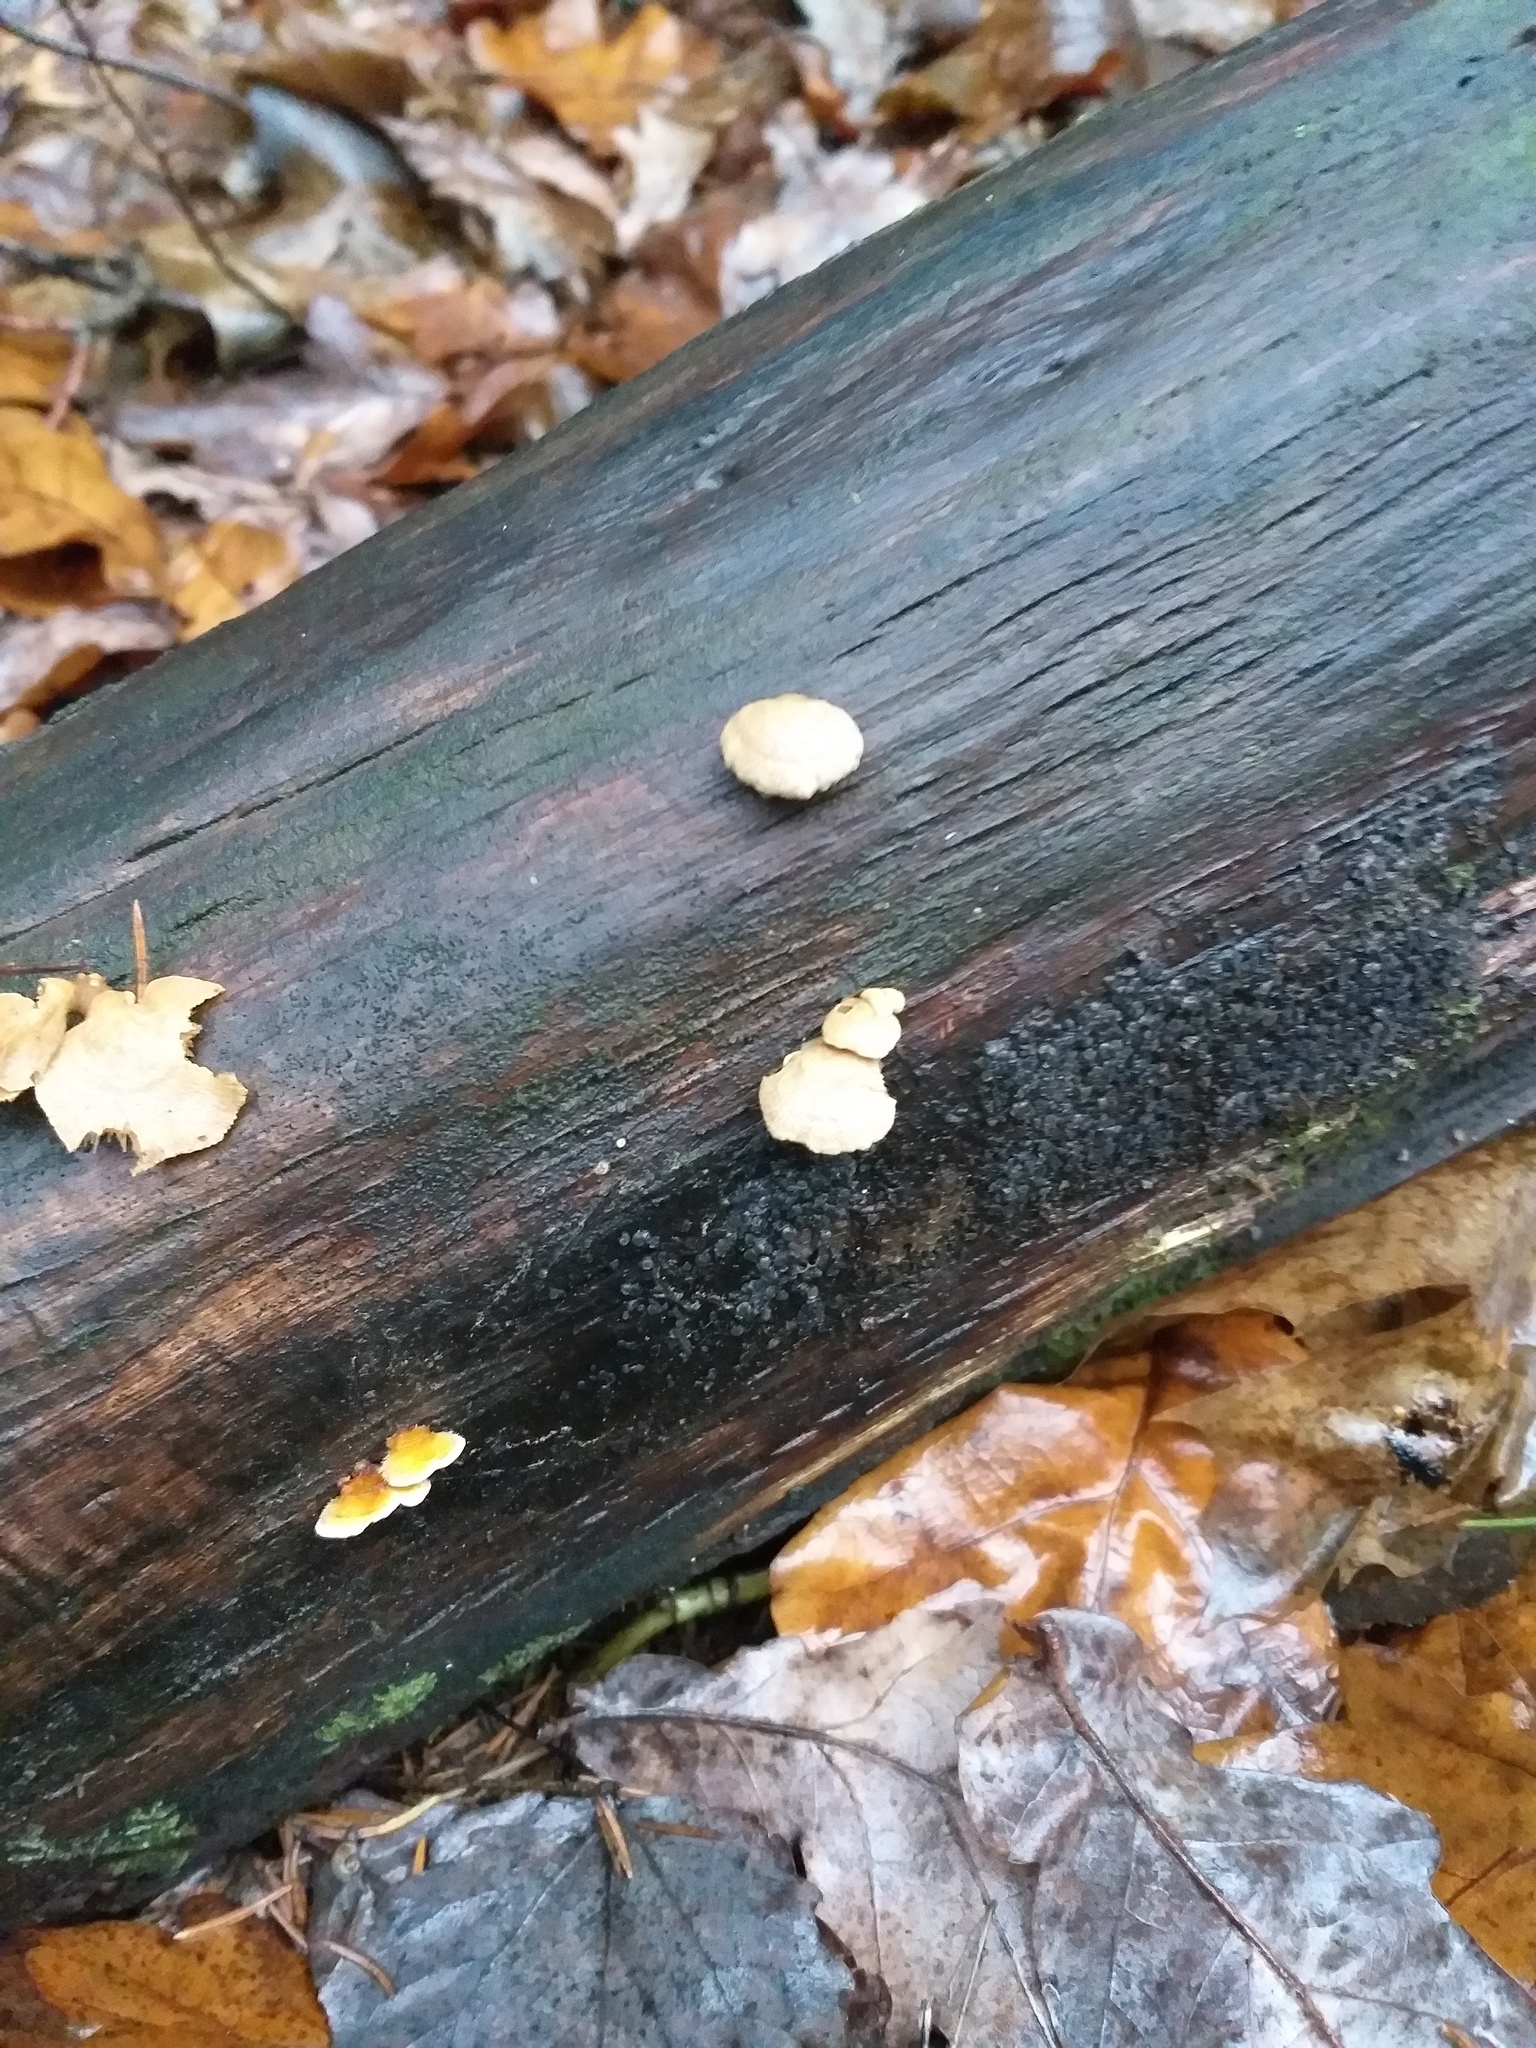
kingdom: Fungi
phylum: Basidiomycota
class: Agaricomycetes
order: Agaricales
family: Mycenaceae
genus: Panellus
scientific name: Panellus stipticus
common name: Bitter oysterling
